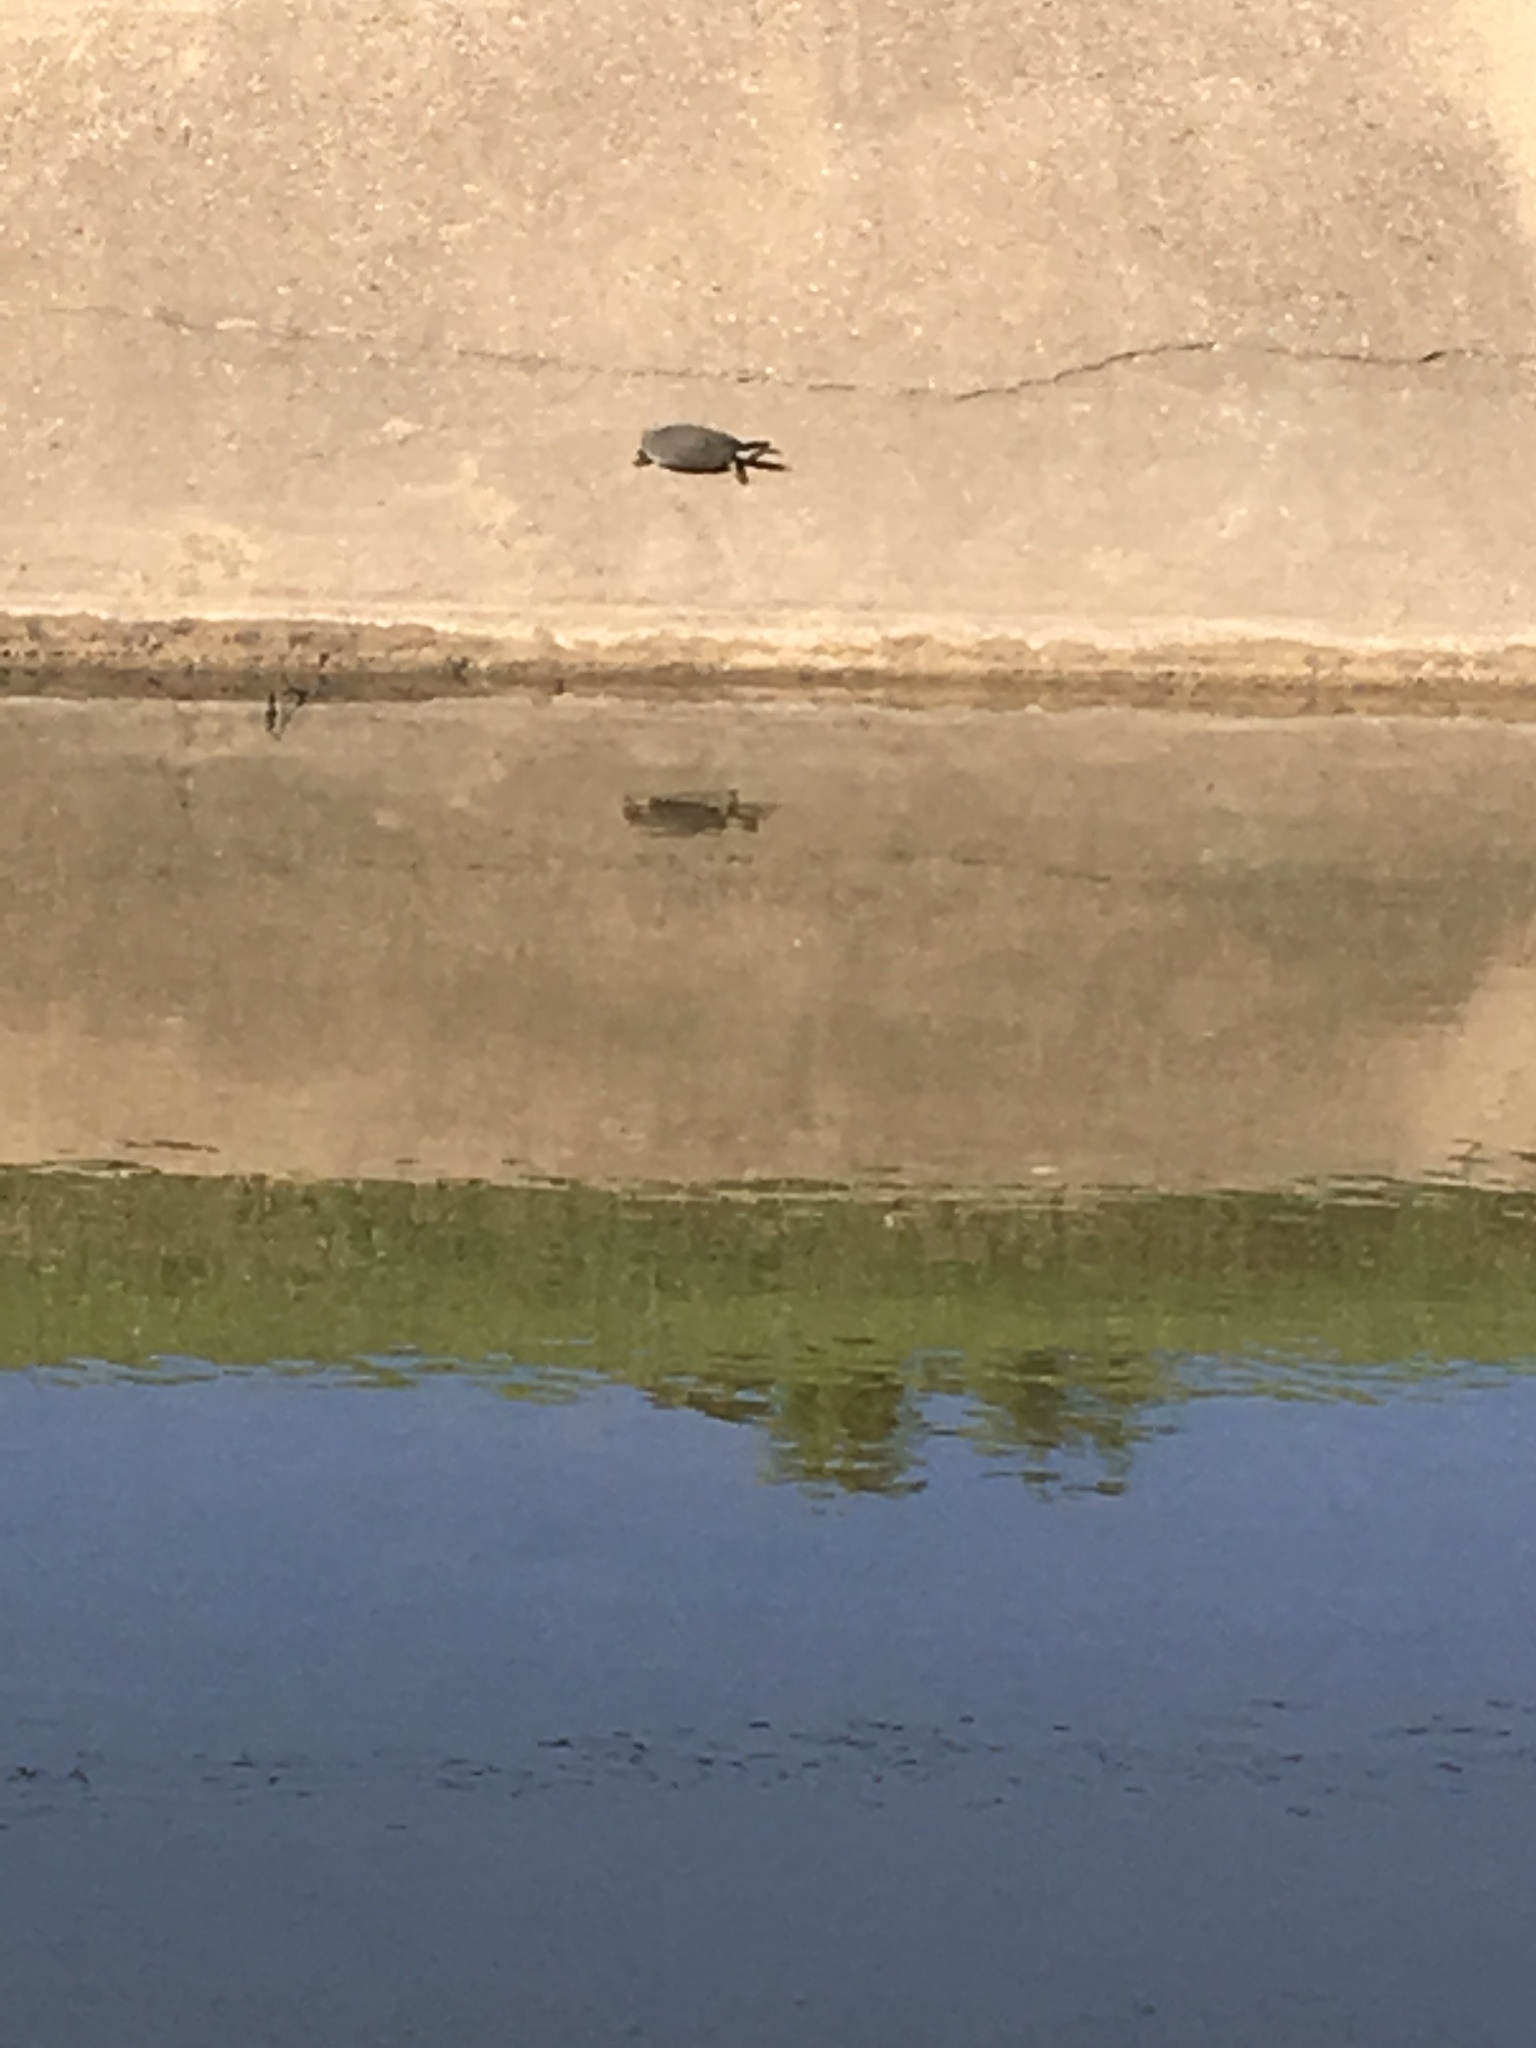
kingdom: Animalia
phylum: Chordata
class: Testudines
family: Trionychidae
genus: Apalone
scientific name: Apalone spinifera
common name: Spiny softshell turtle
